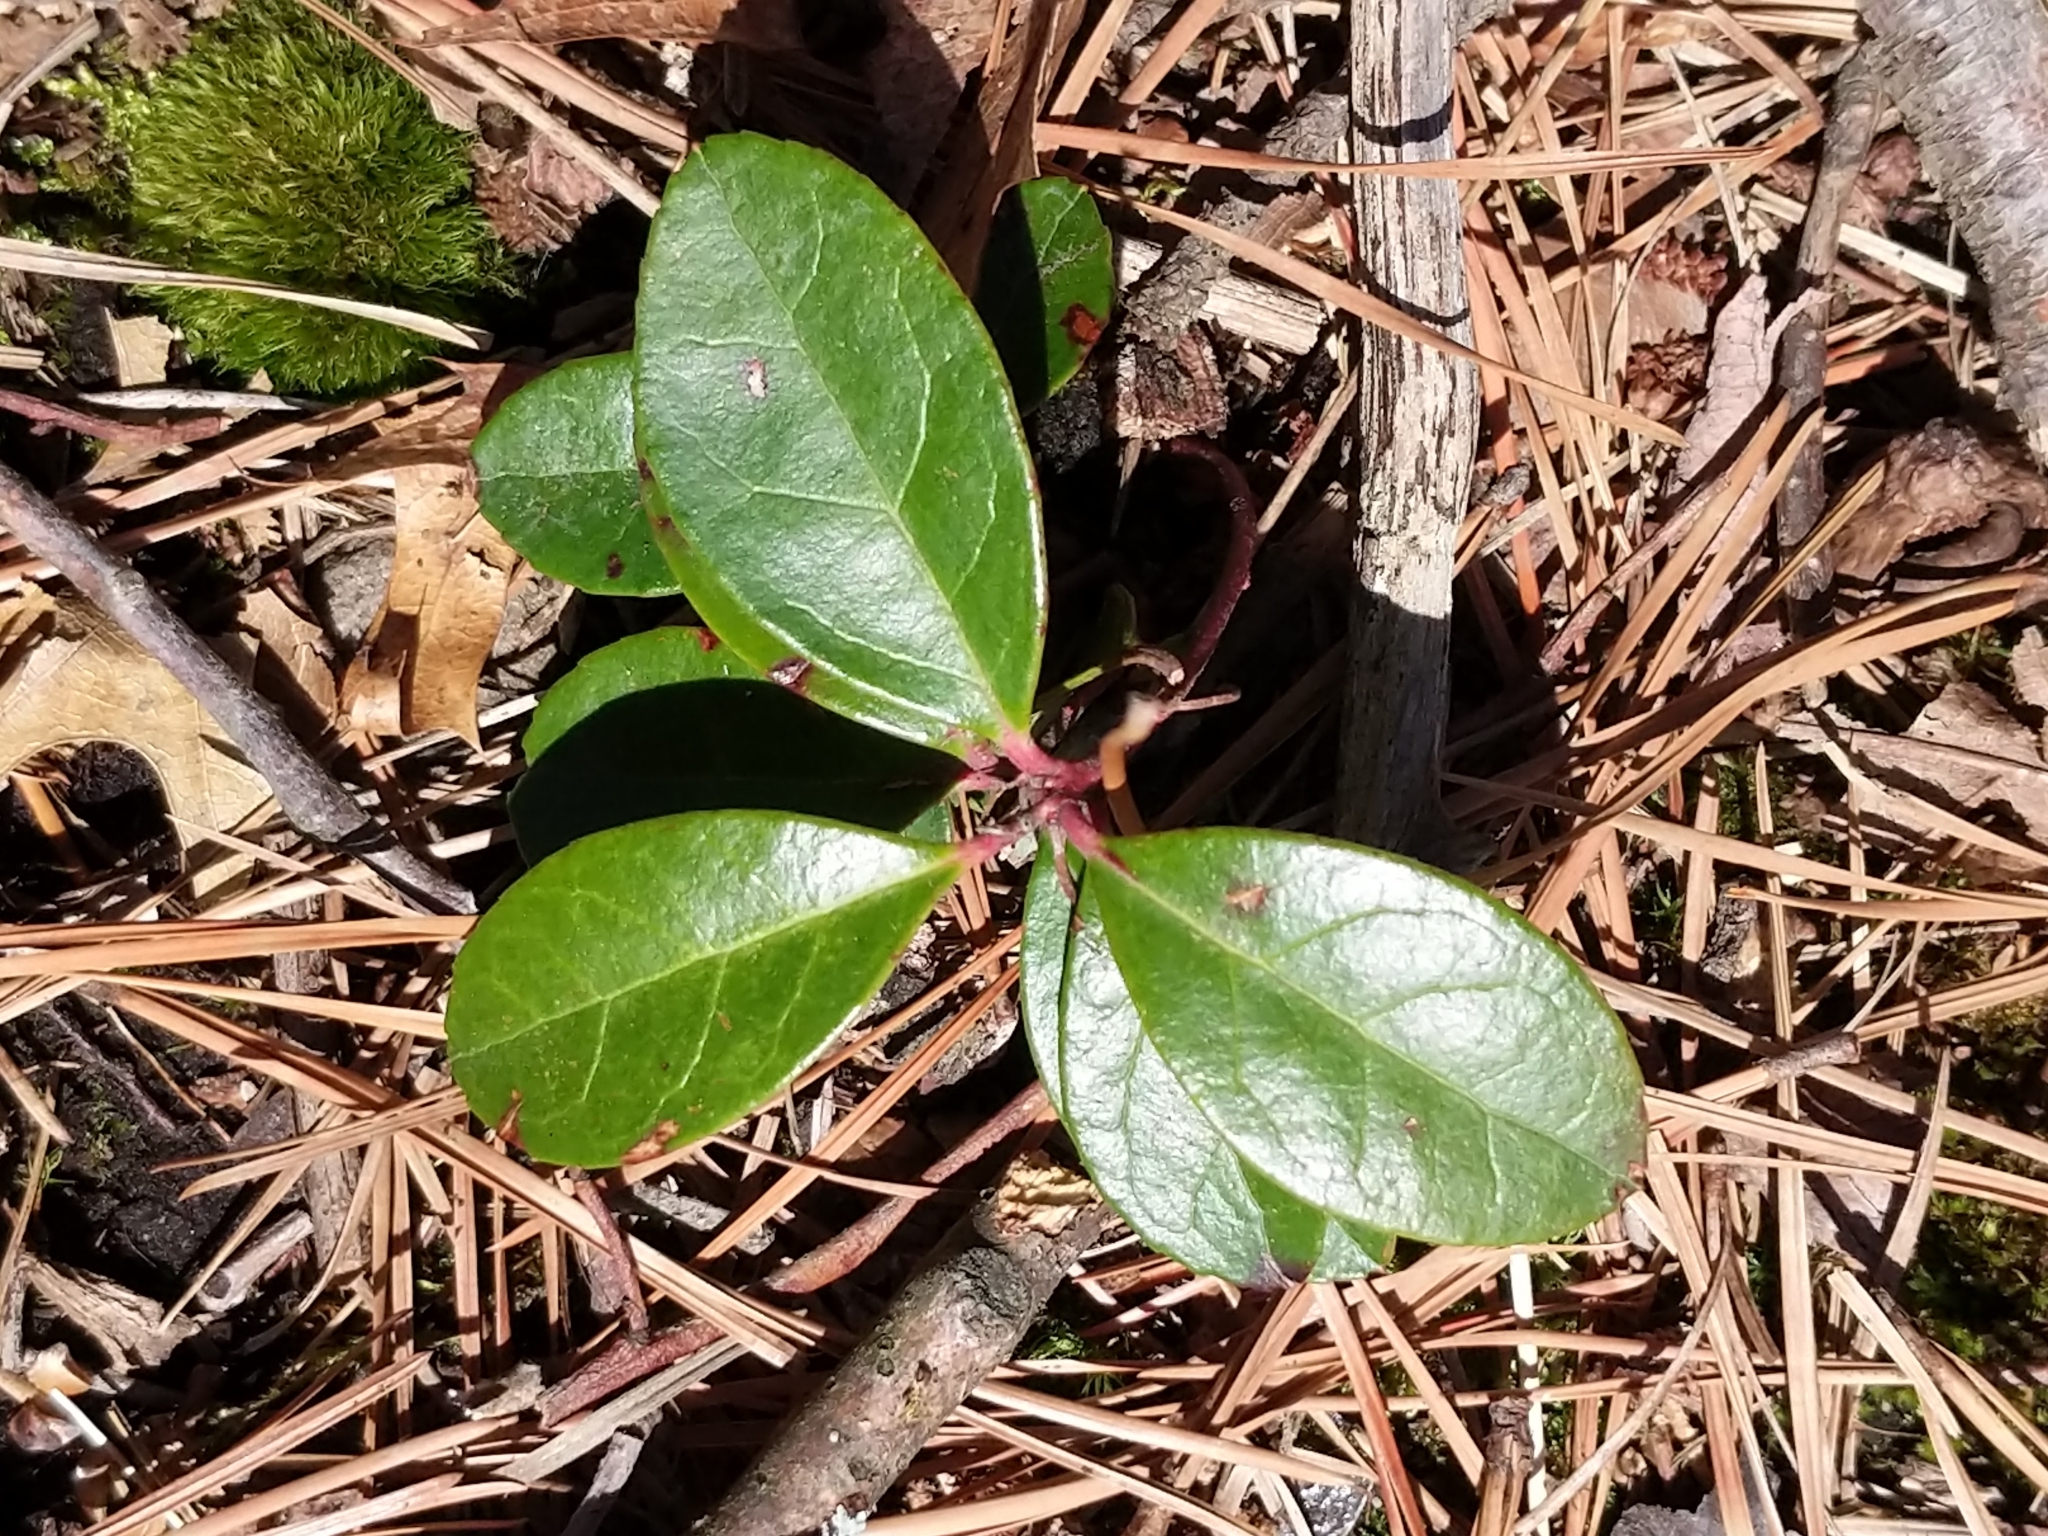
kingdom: Plantae
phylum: Tracheophyta
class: Magnoliopsida
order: Ericales
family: Ericaceae
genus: Gaultheria
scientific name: Gaultheria procumbens
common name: Checkerberry
